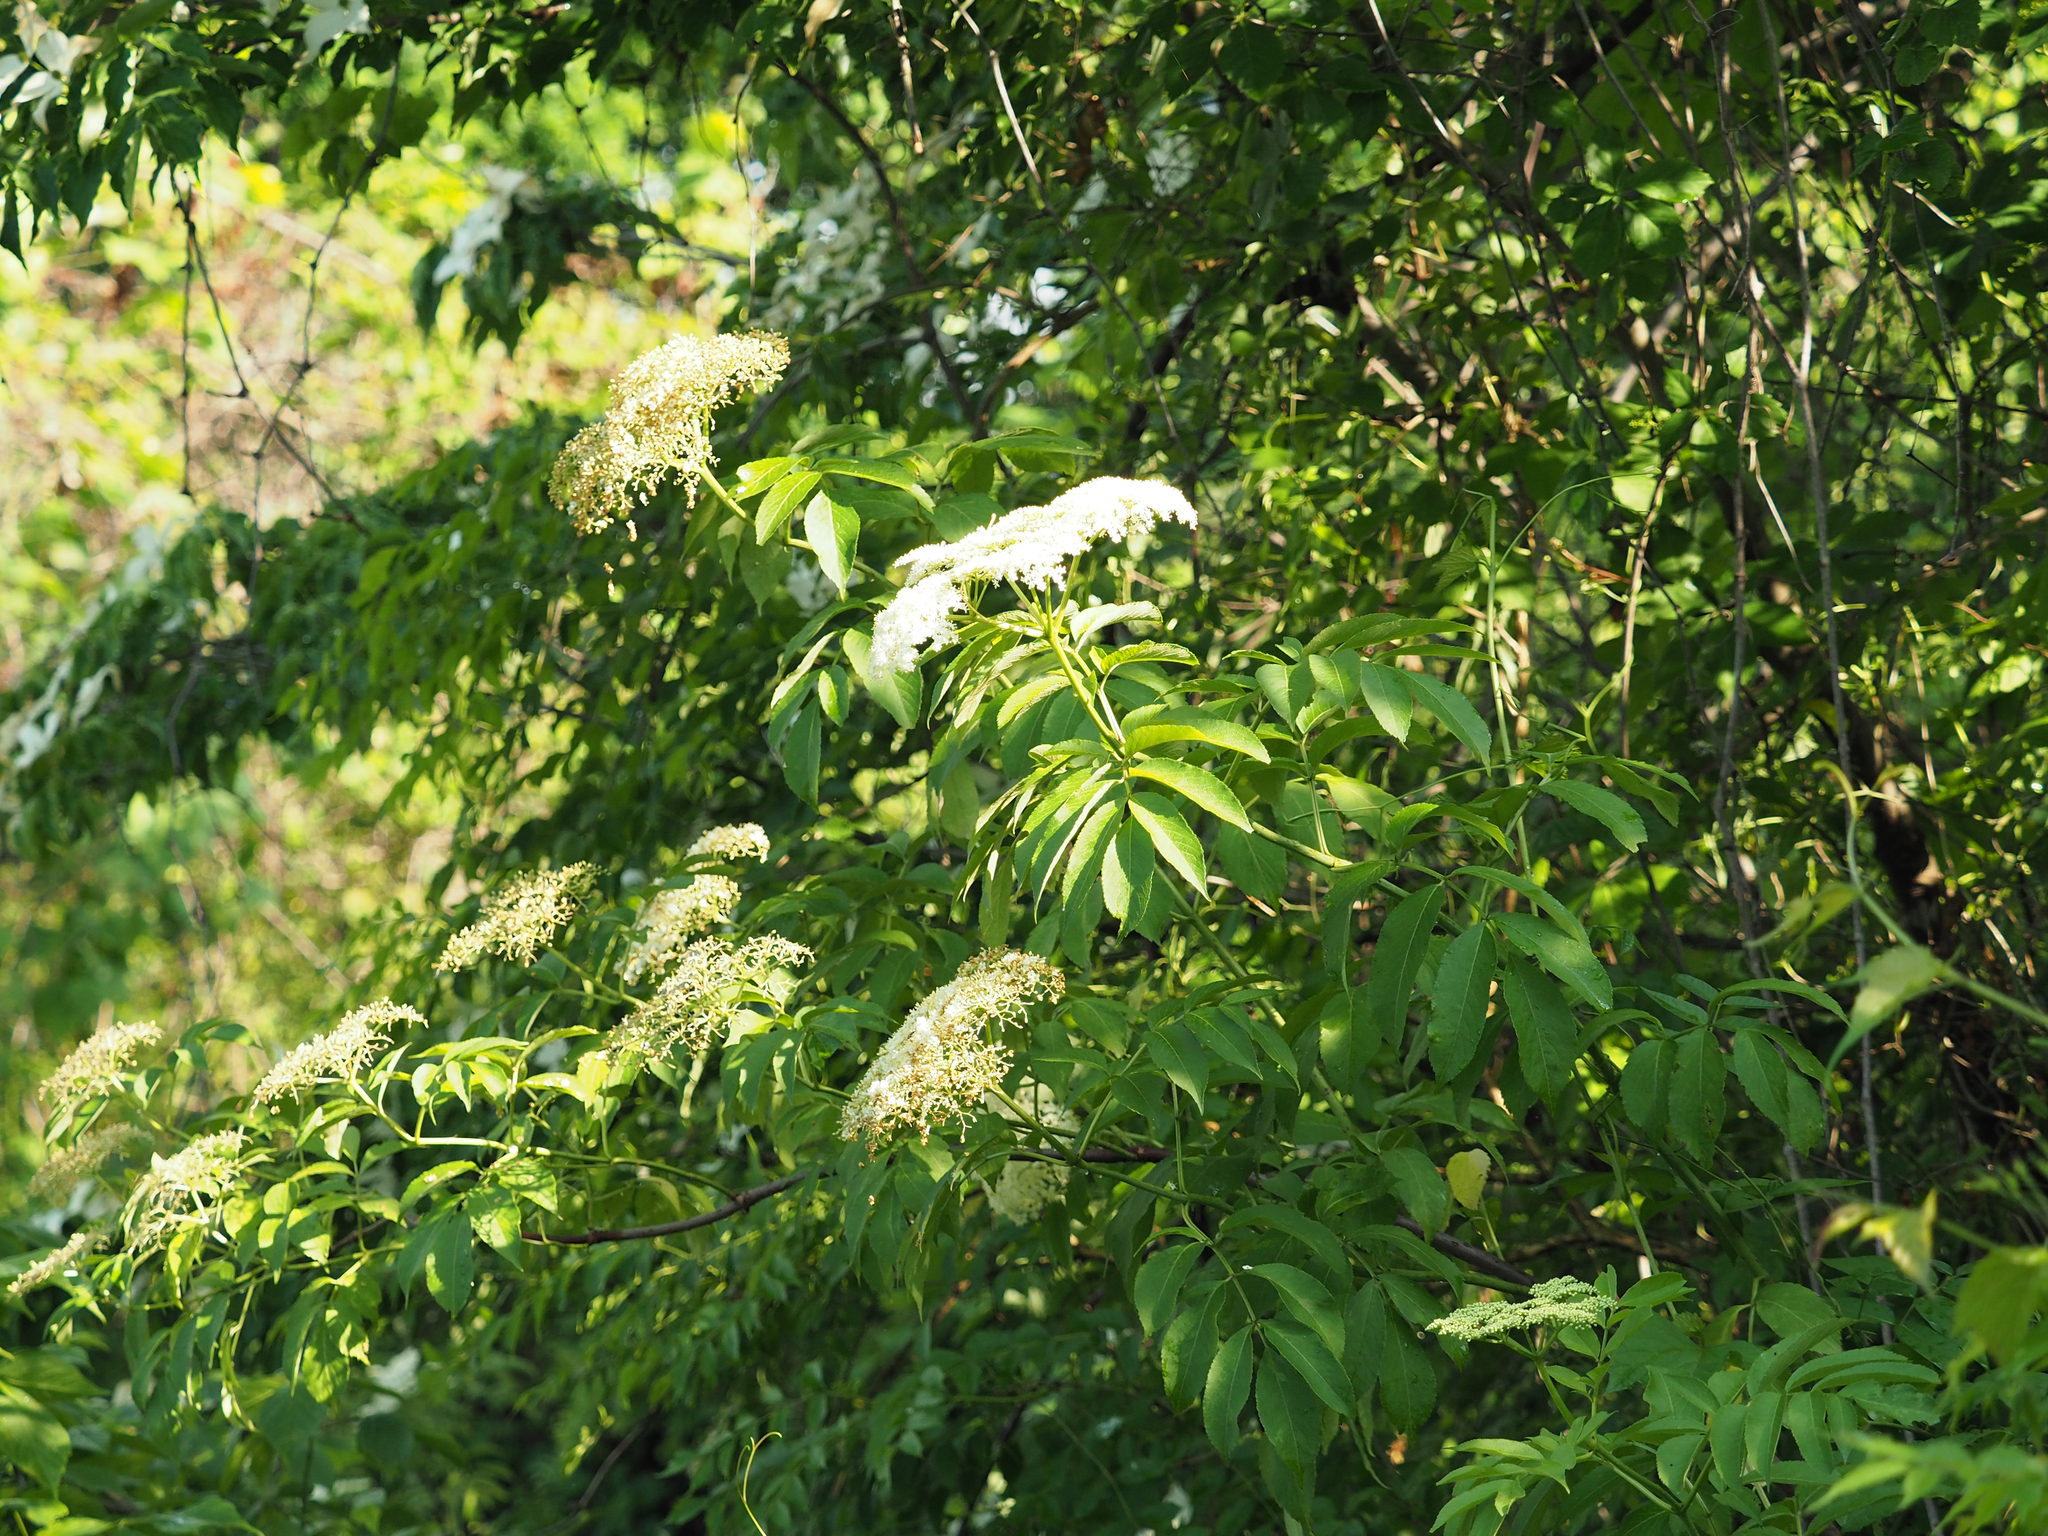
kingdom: Plantae
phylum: Tracheophyta
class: Magnoliopsida
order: Dipsacales
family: Viburnaceae
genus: Sambucus
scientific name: Sambucus canadensis
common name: American elder
